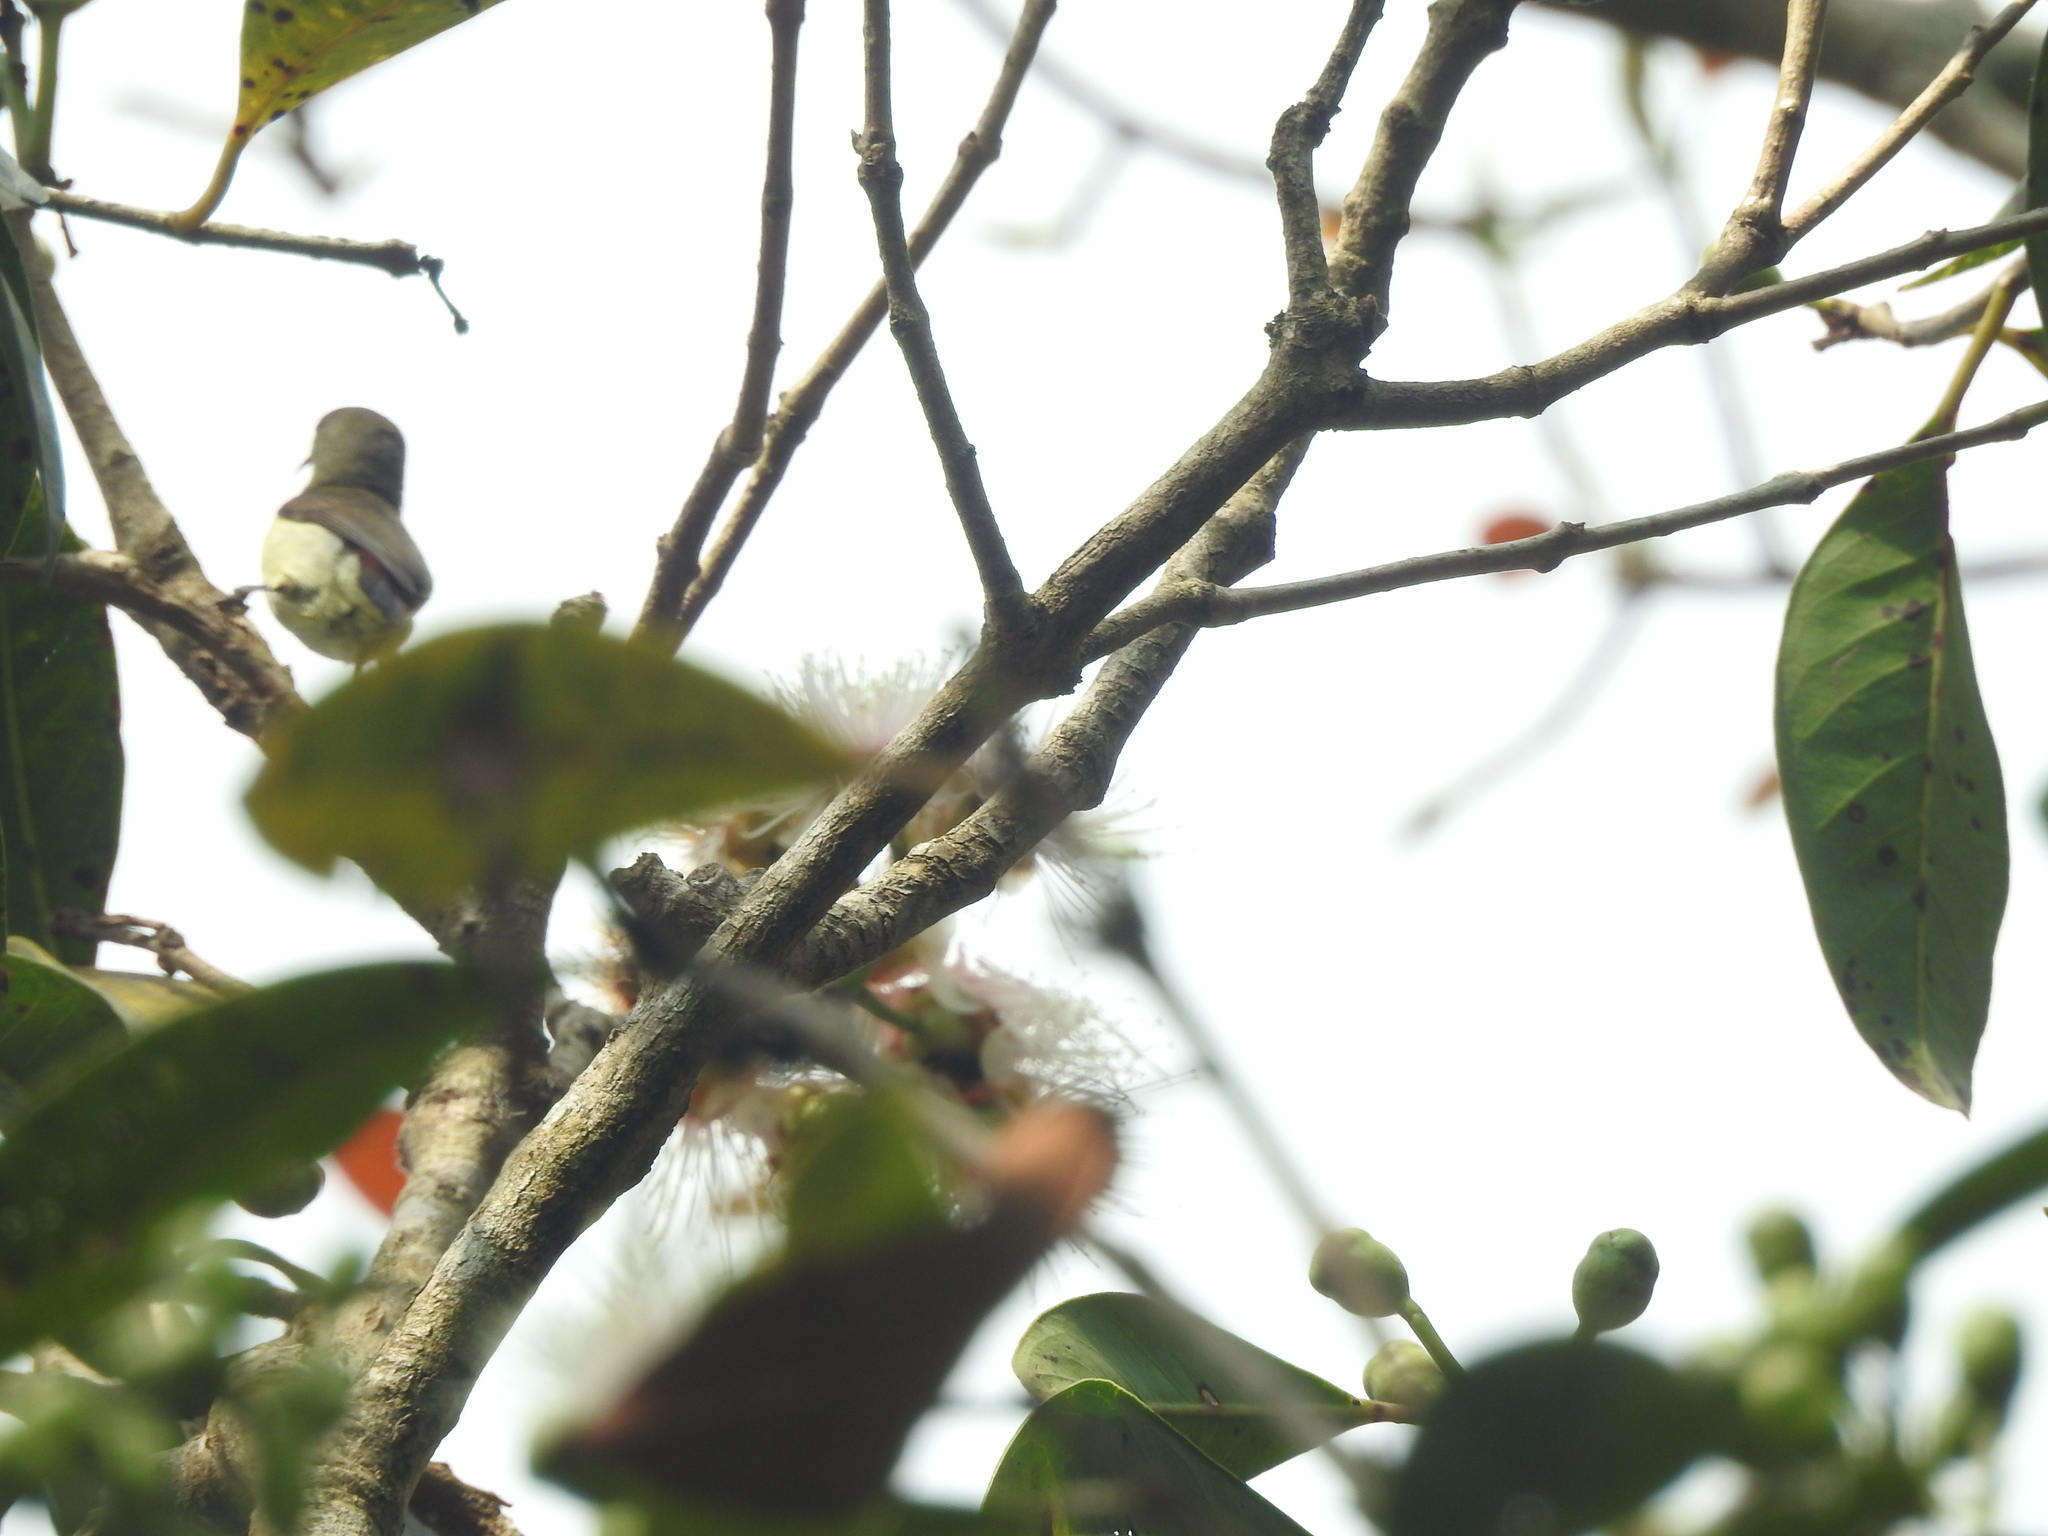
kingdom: Animalia
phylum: Chordata
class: Aves
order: Passeriformes
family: Nectariniidae
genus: Leptocoma
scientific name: Leptocoma minima
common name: Crimson-backed sunbird
